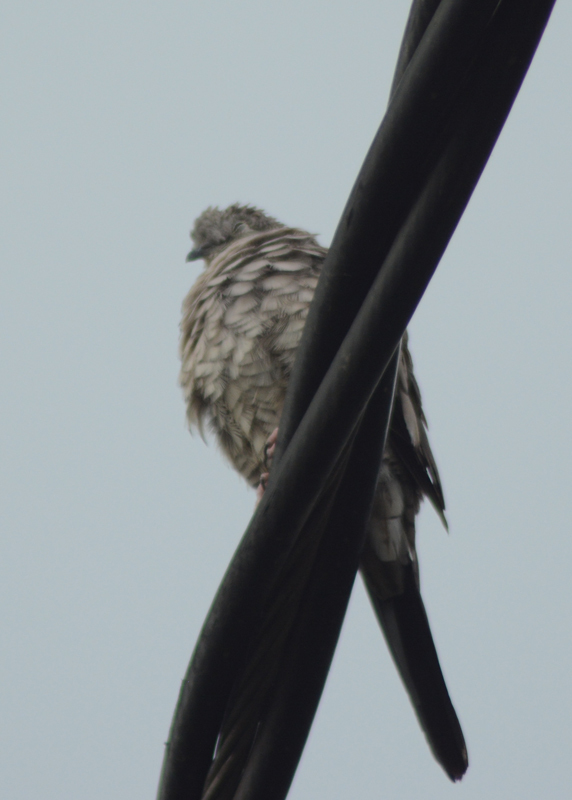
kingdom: Animalia
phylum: Chordata
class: Aves
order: Columbiformes
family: Columbidae
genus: Columbina
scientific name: Columbina inca
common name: Inca dove
